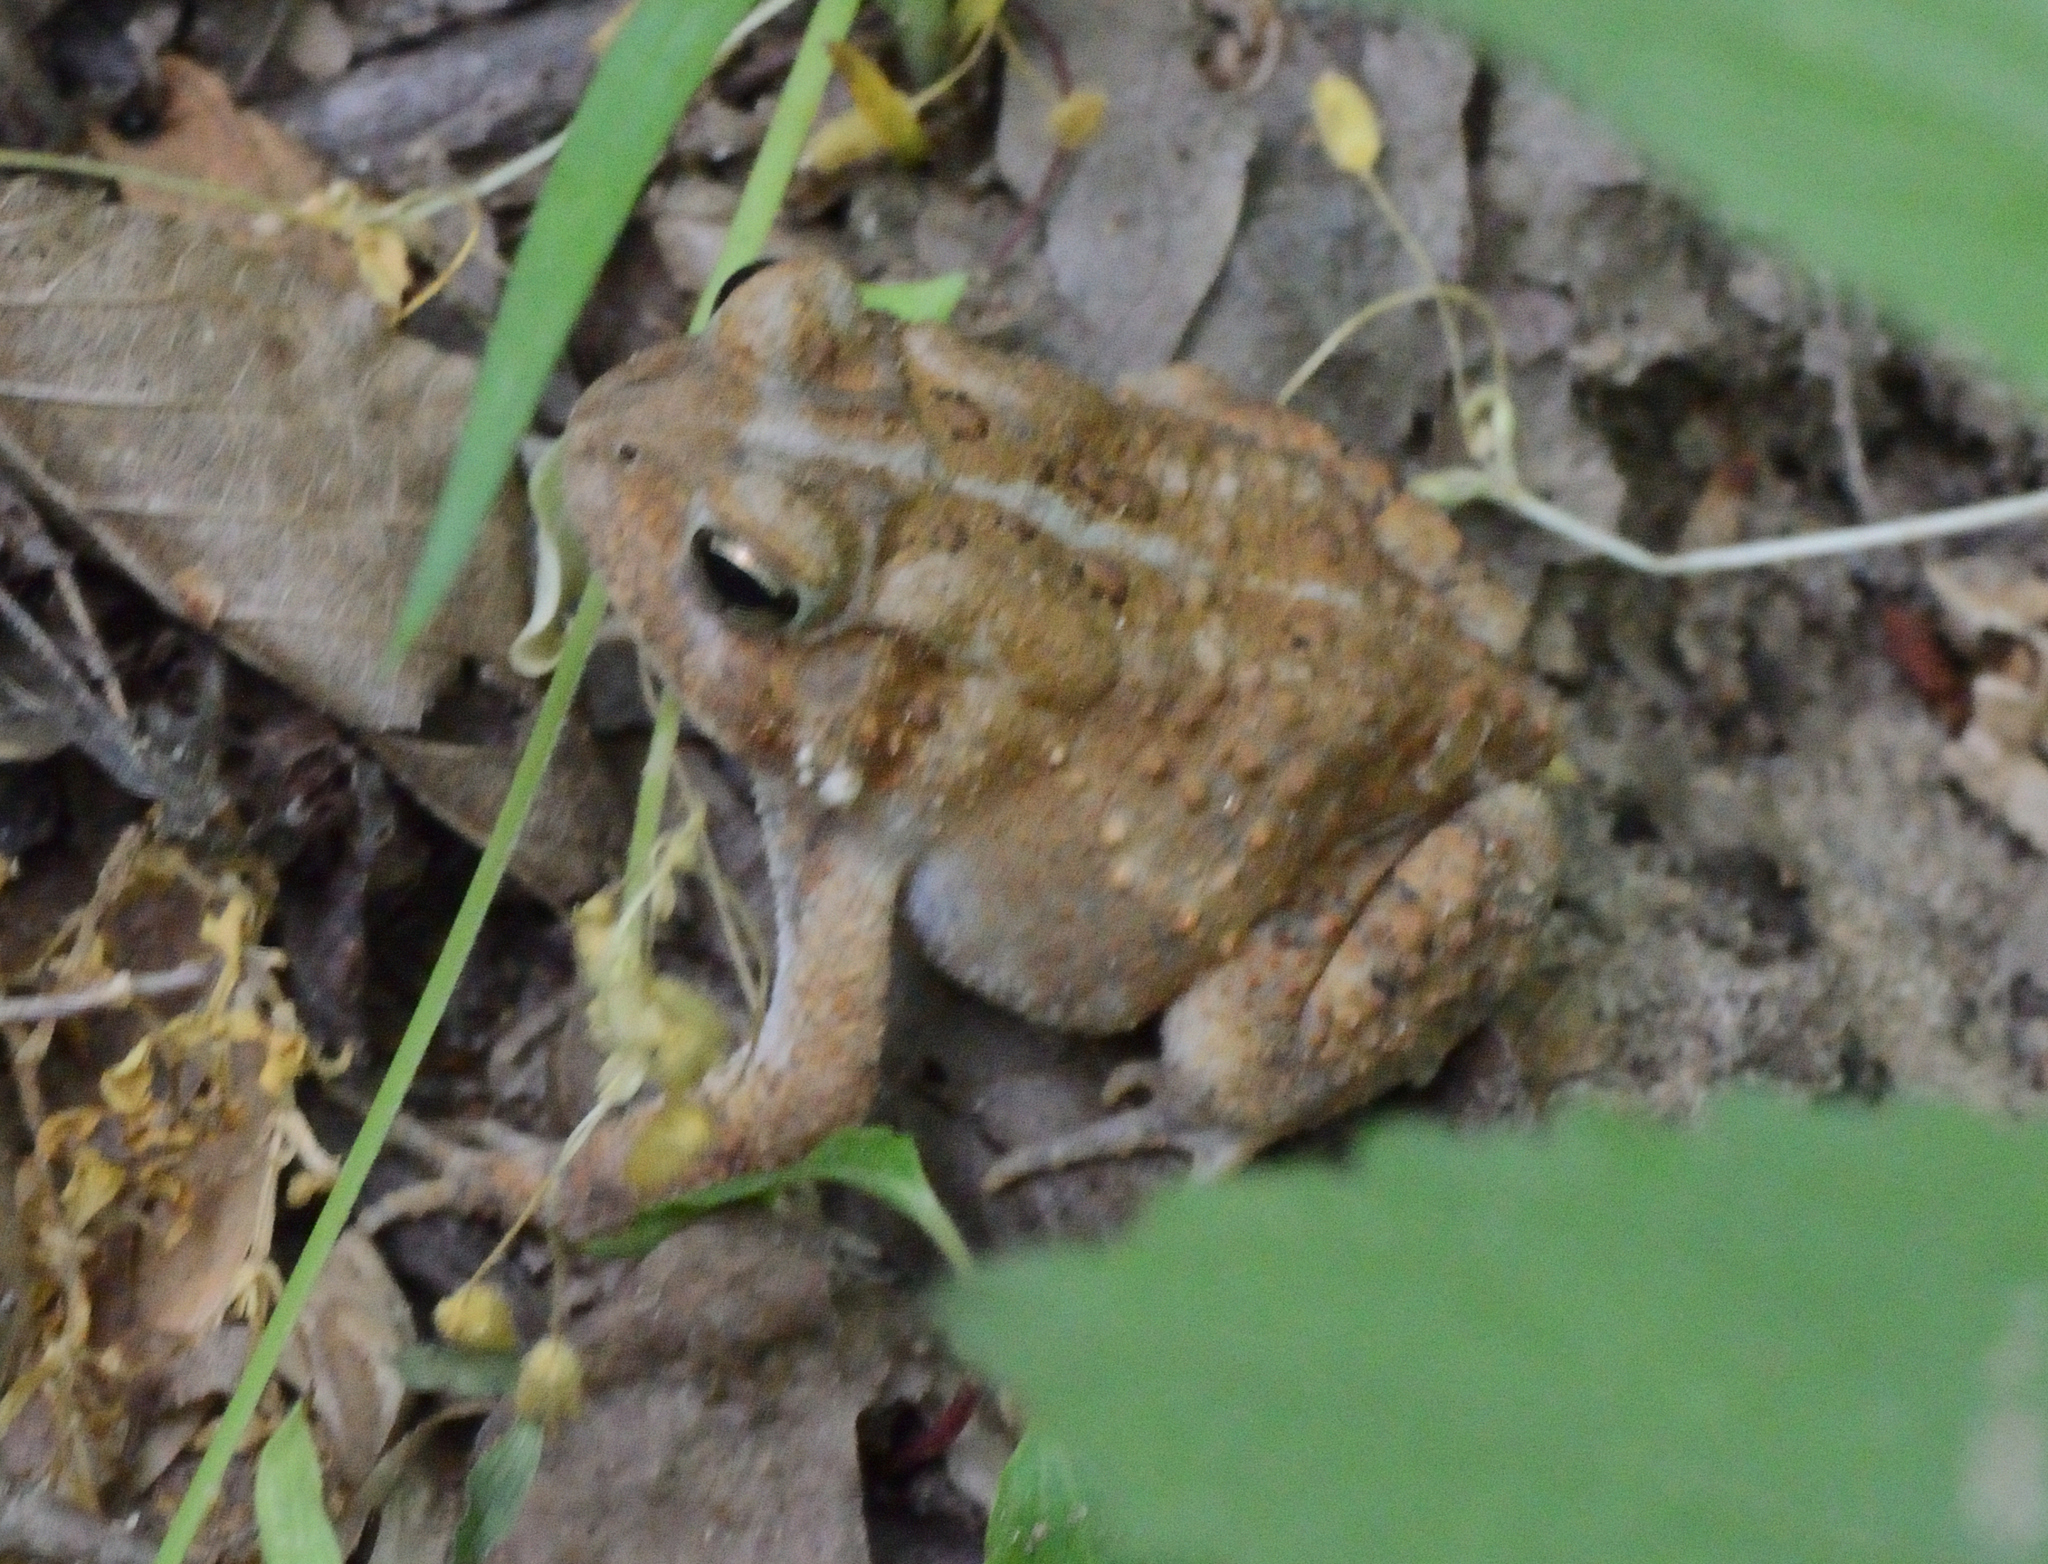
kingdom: Animalia
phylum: Chordata
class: Amphibia
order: Anura
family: Bufonidae
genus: Anaxyrus
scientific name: Anaxyrus americanus
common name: American toad
